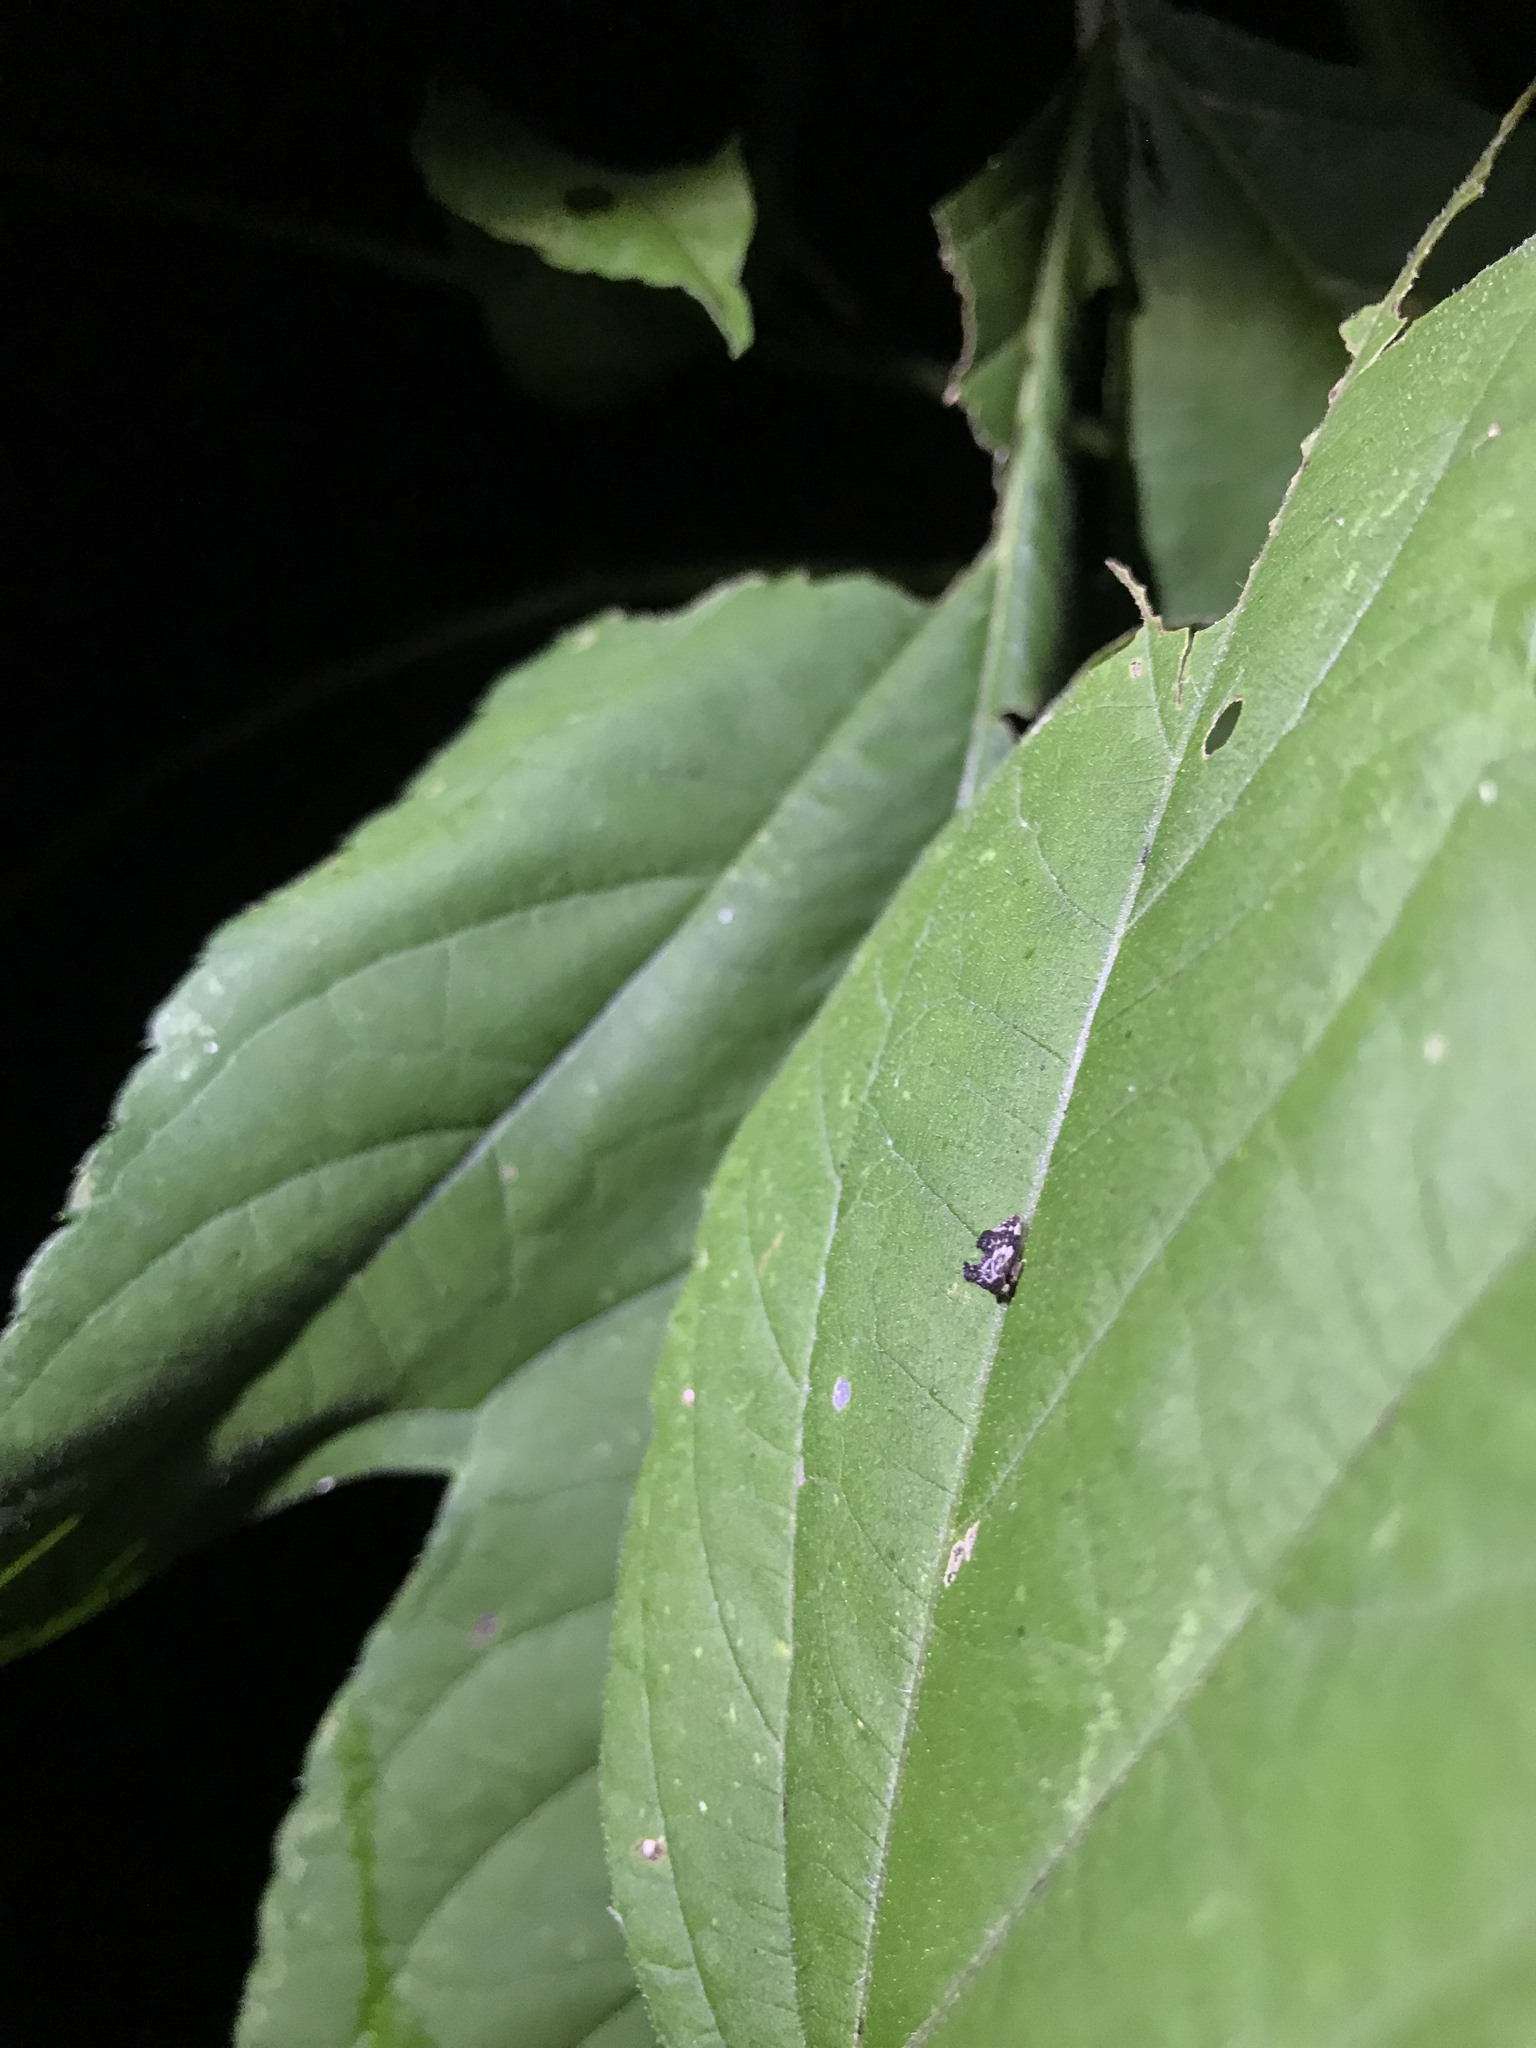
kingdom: Animalia
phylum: Arthropoda
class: Insecta
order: Hemiptera
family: Membracidae
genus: Entylia
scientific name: Entylia carinata
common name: Keeled treehopper
